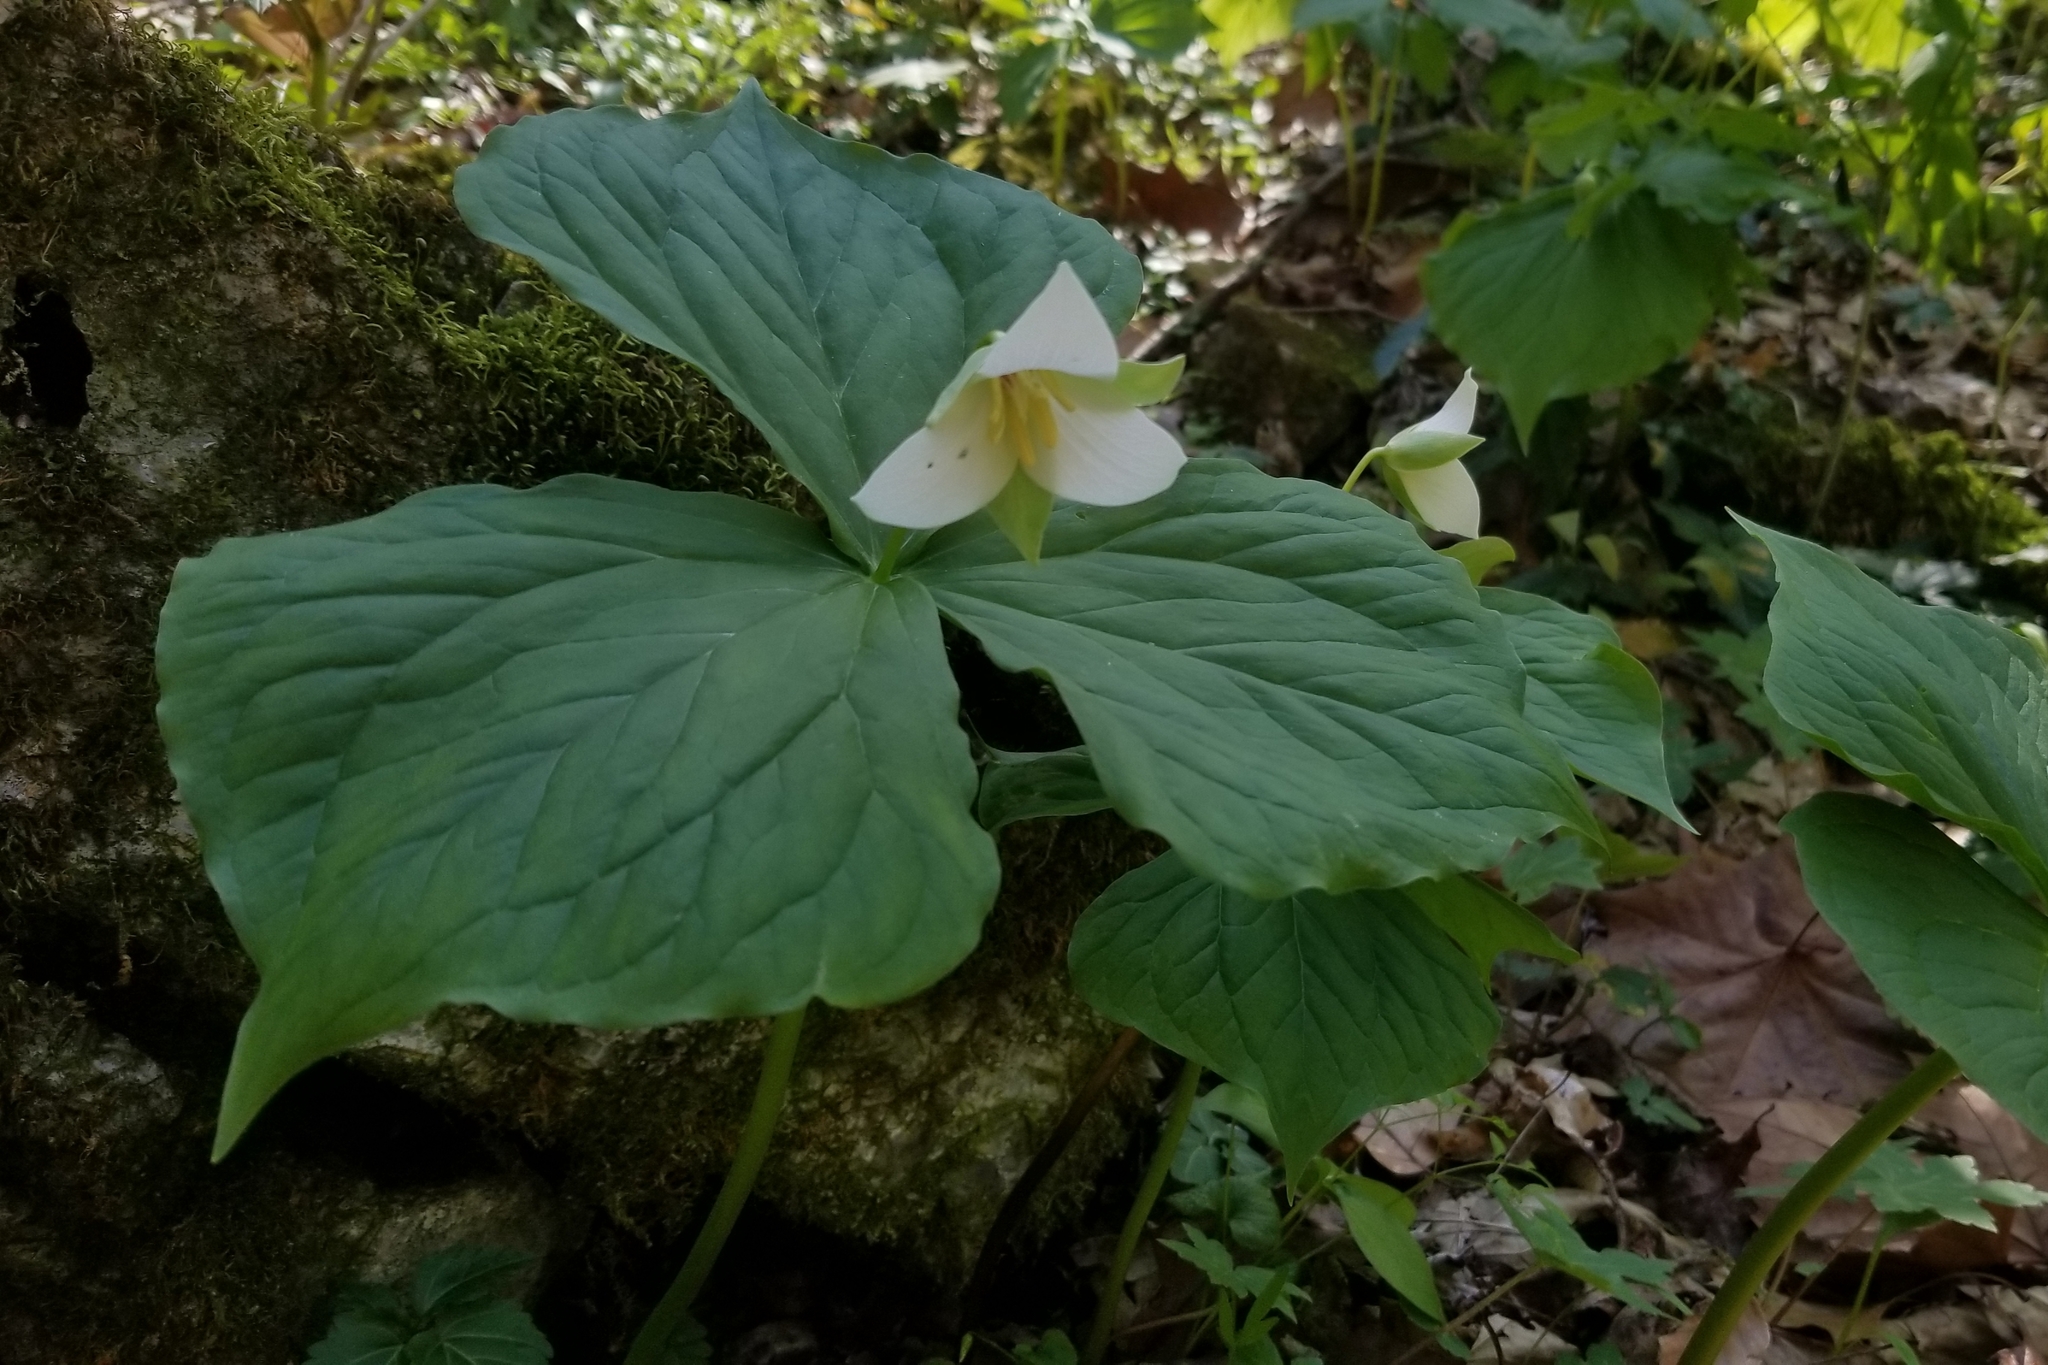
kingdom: Plantae
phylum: Tracheophyta
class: Liliopsida
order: Liliales
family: Melanthiaceae
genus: Trillium
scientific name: Trillium flexipes
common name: Drooping trillium
